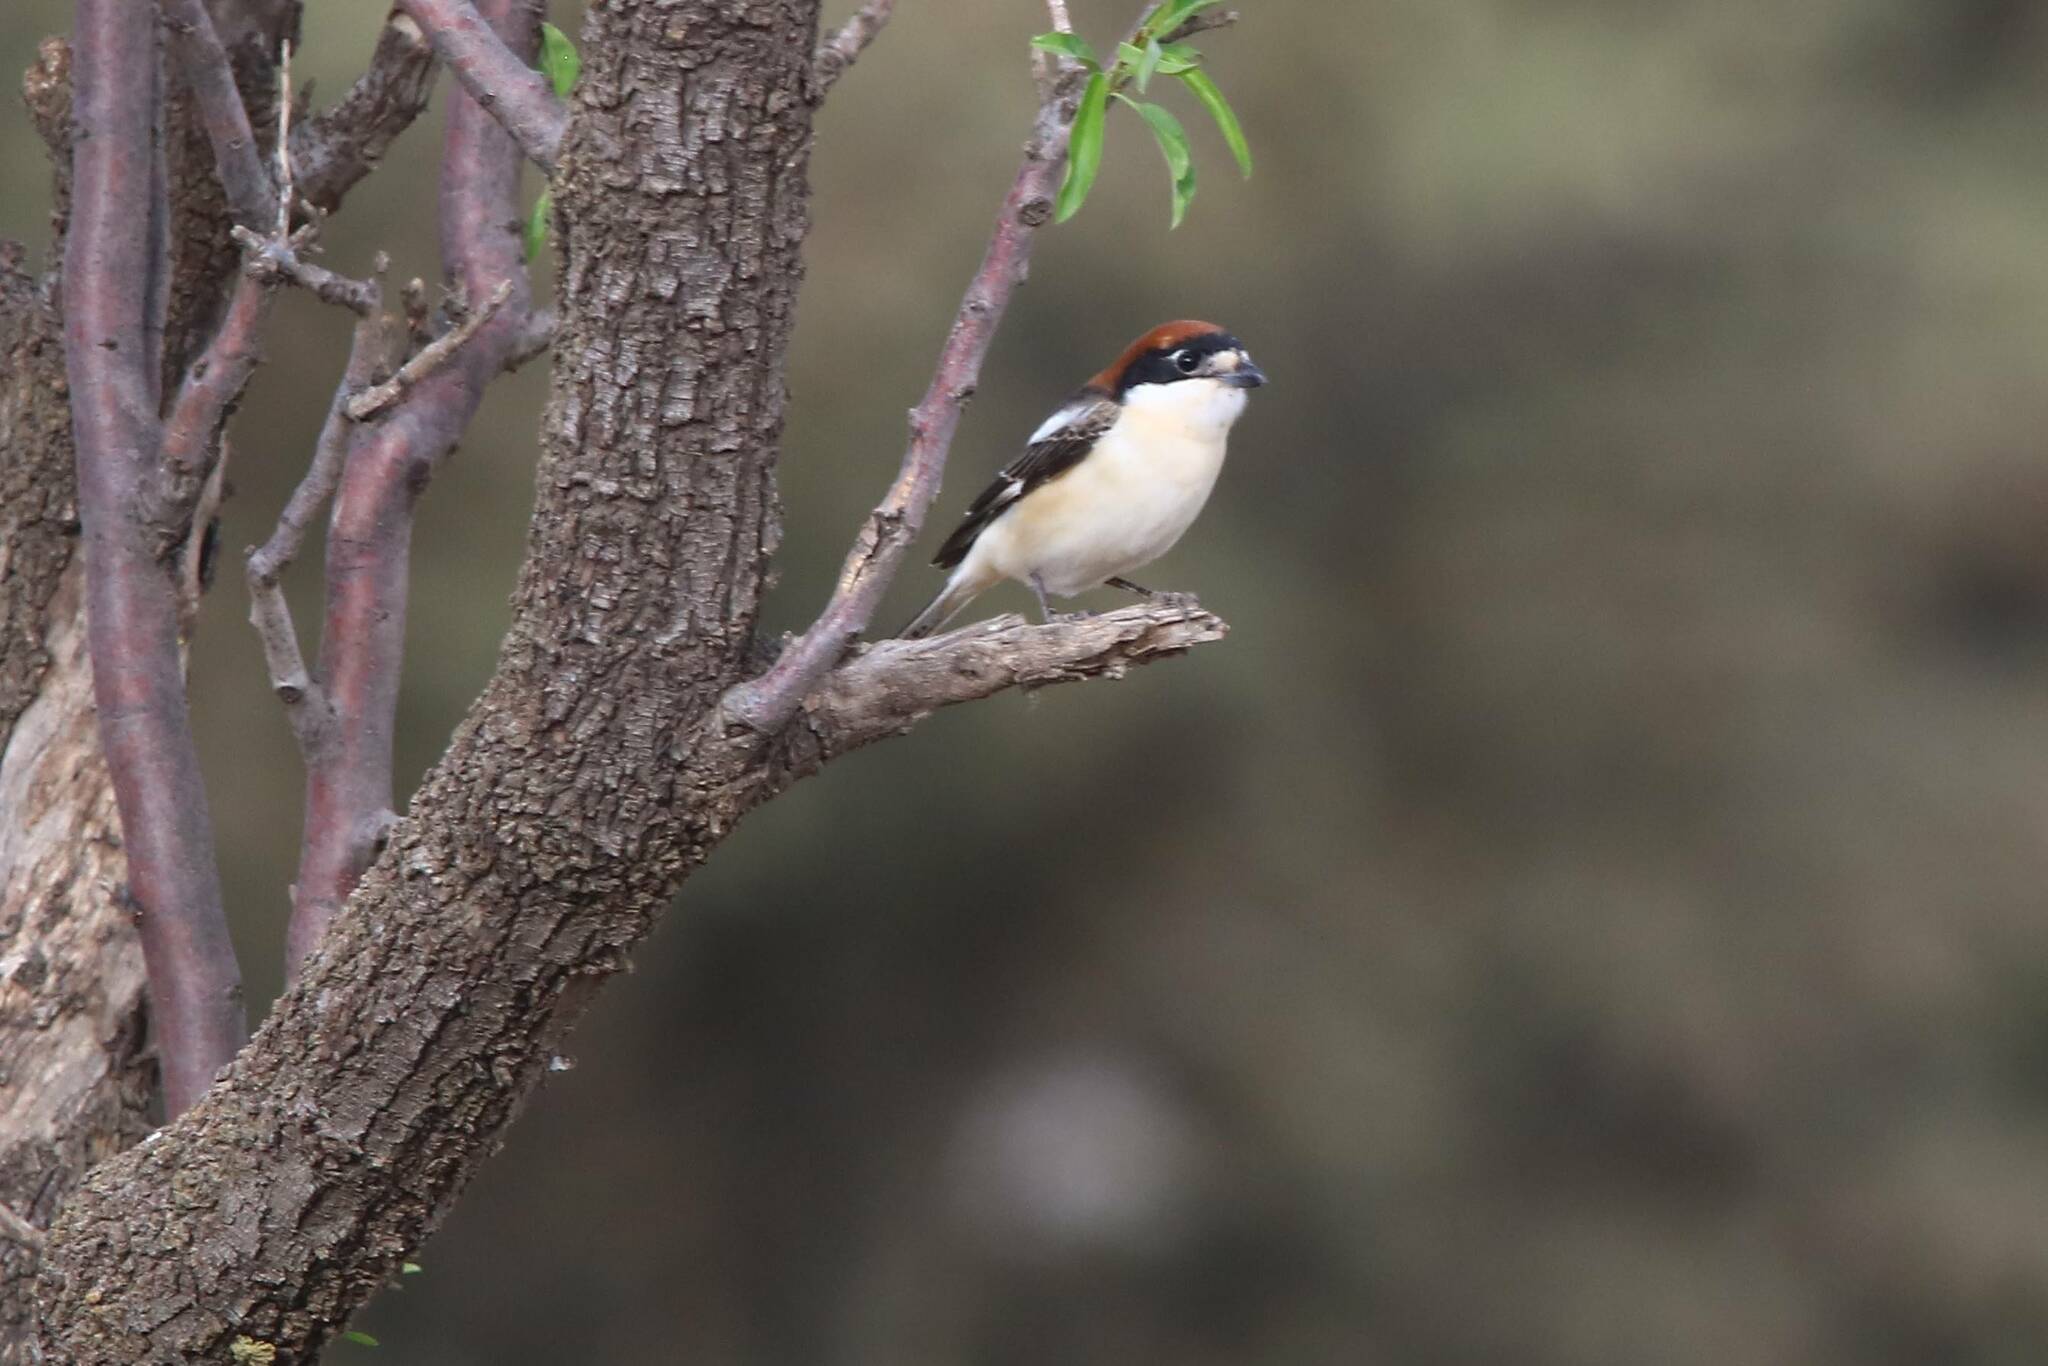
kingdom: Animalia
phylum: Chordata
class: Aves
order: Passeriformes
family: Laniidae
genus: Lanius
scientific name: Lanius senator
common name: Woodchat shrike
